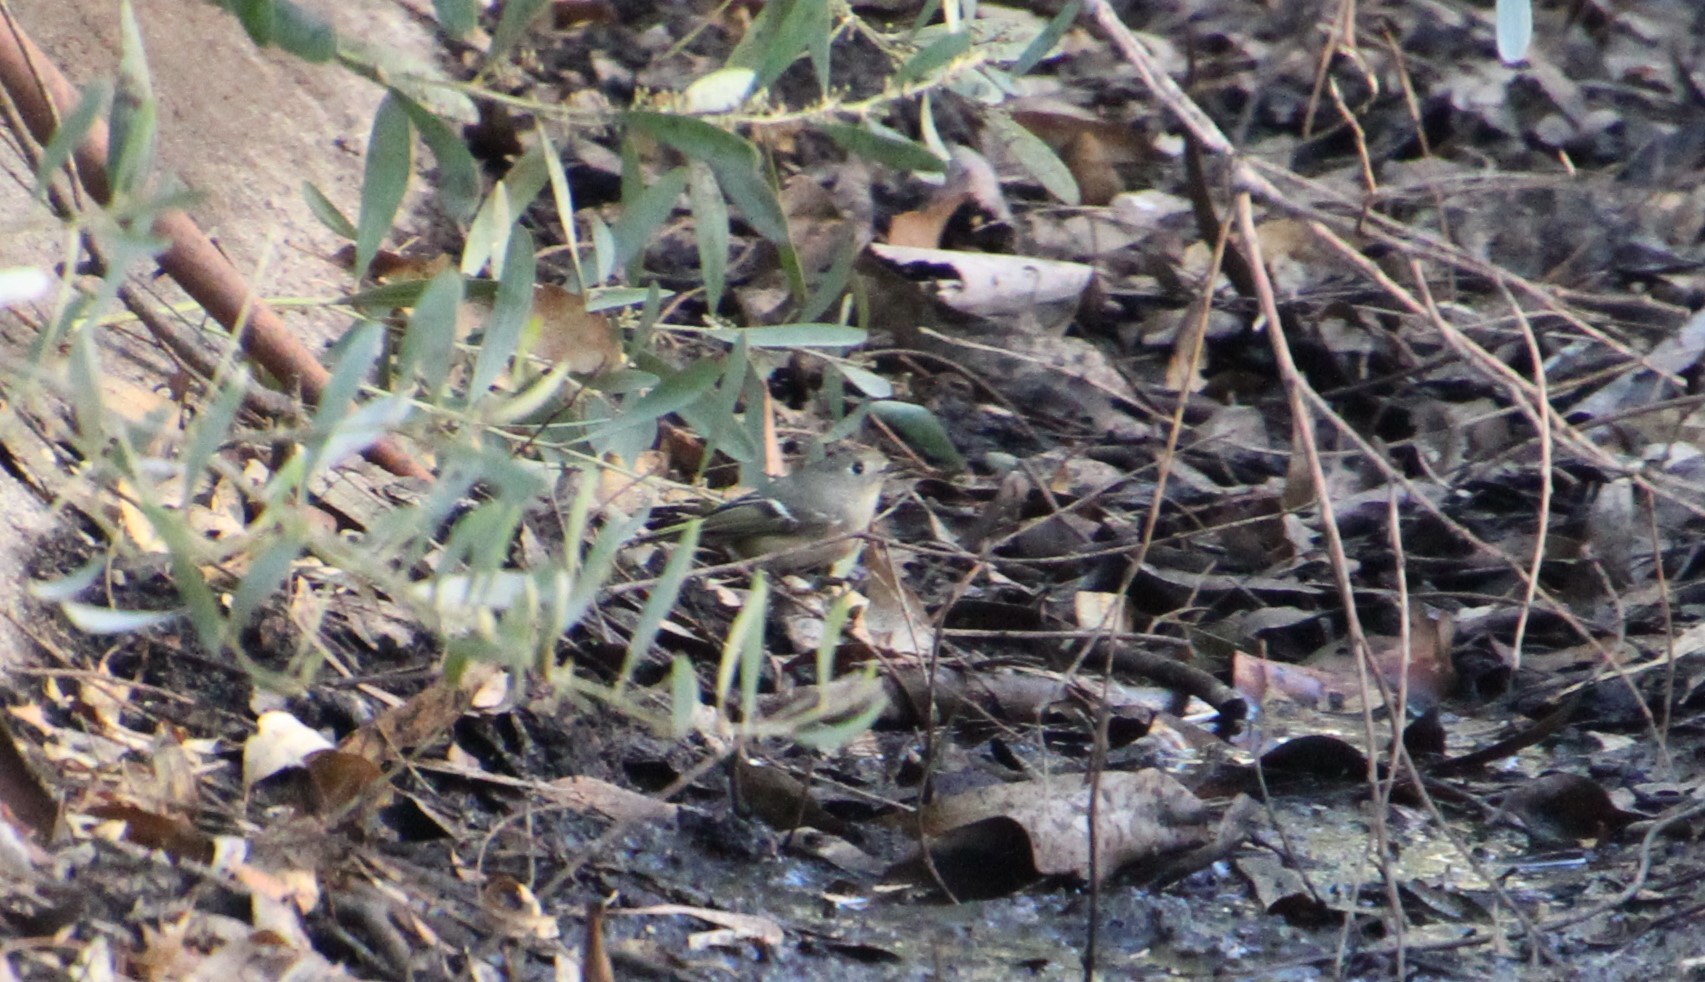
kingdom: Animalia
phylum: Chordata
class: Aves
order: Passeriformes
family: Regulidae
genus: Regulus
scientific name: Regulus calendula
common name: Ruby-crowned kinglet
